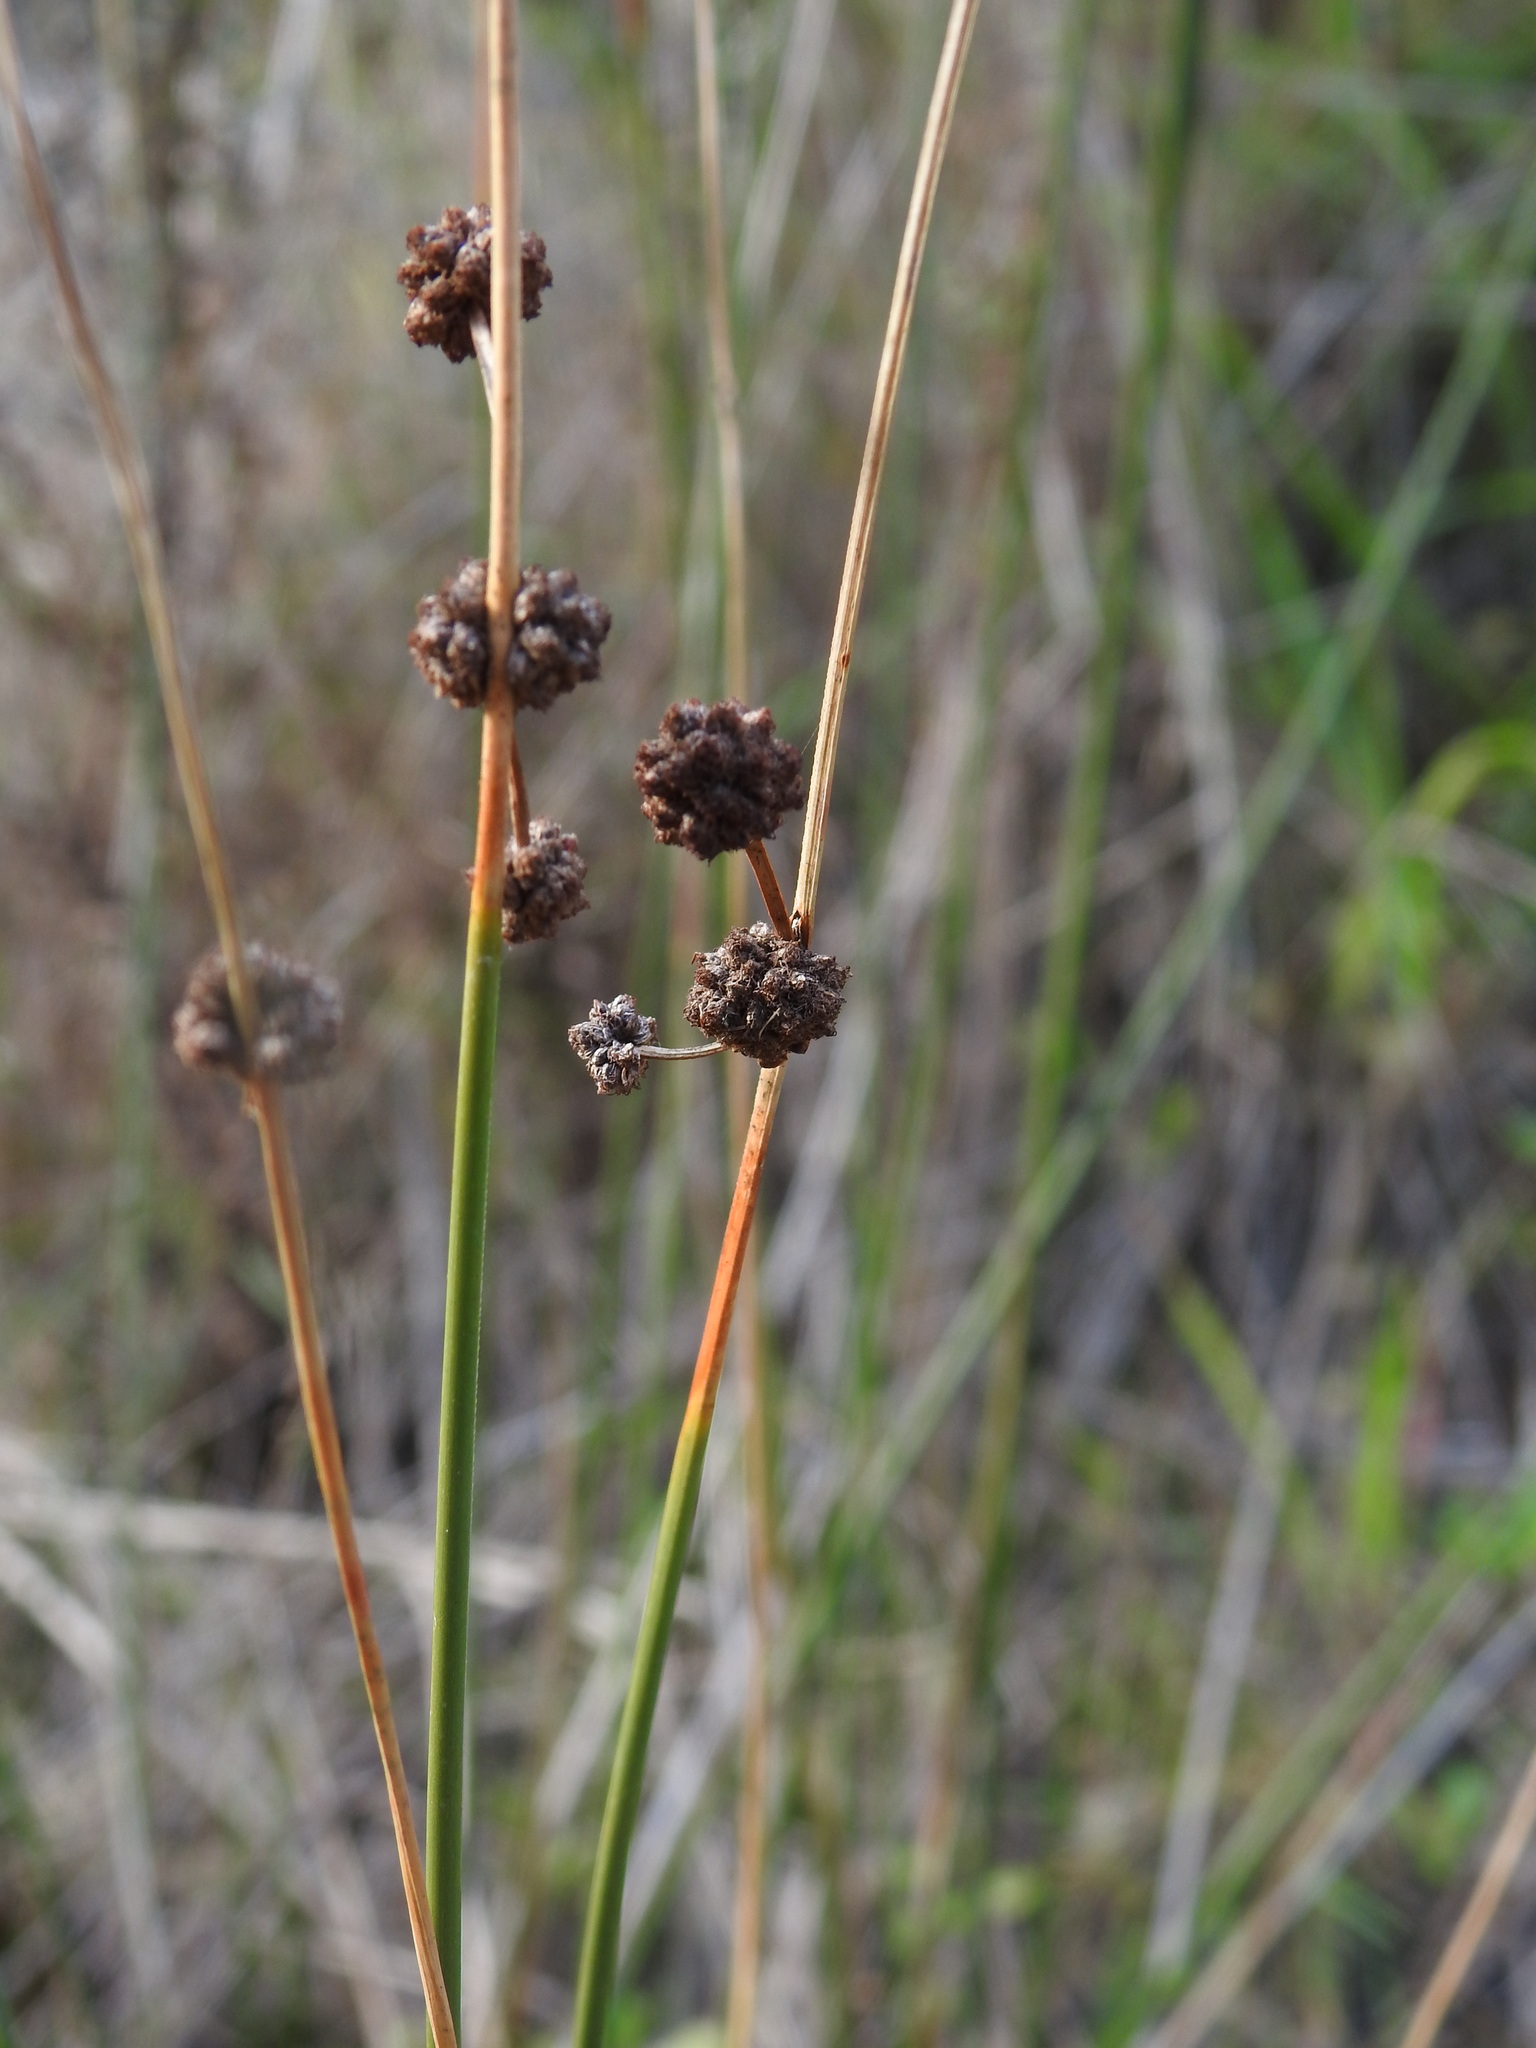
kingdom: Plantae
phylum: Tracheophyta
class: Liliopsida
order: Poales
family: Cyperaceae
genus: Scirpoides
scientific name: Scirpoides holoschoenus
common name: Round-headed club-rush
